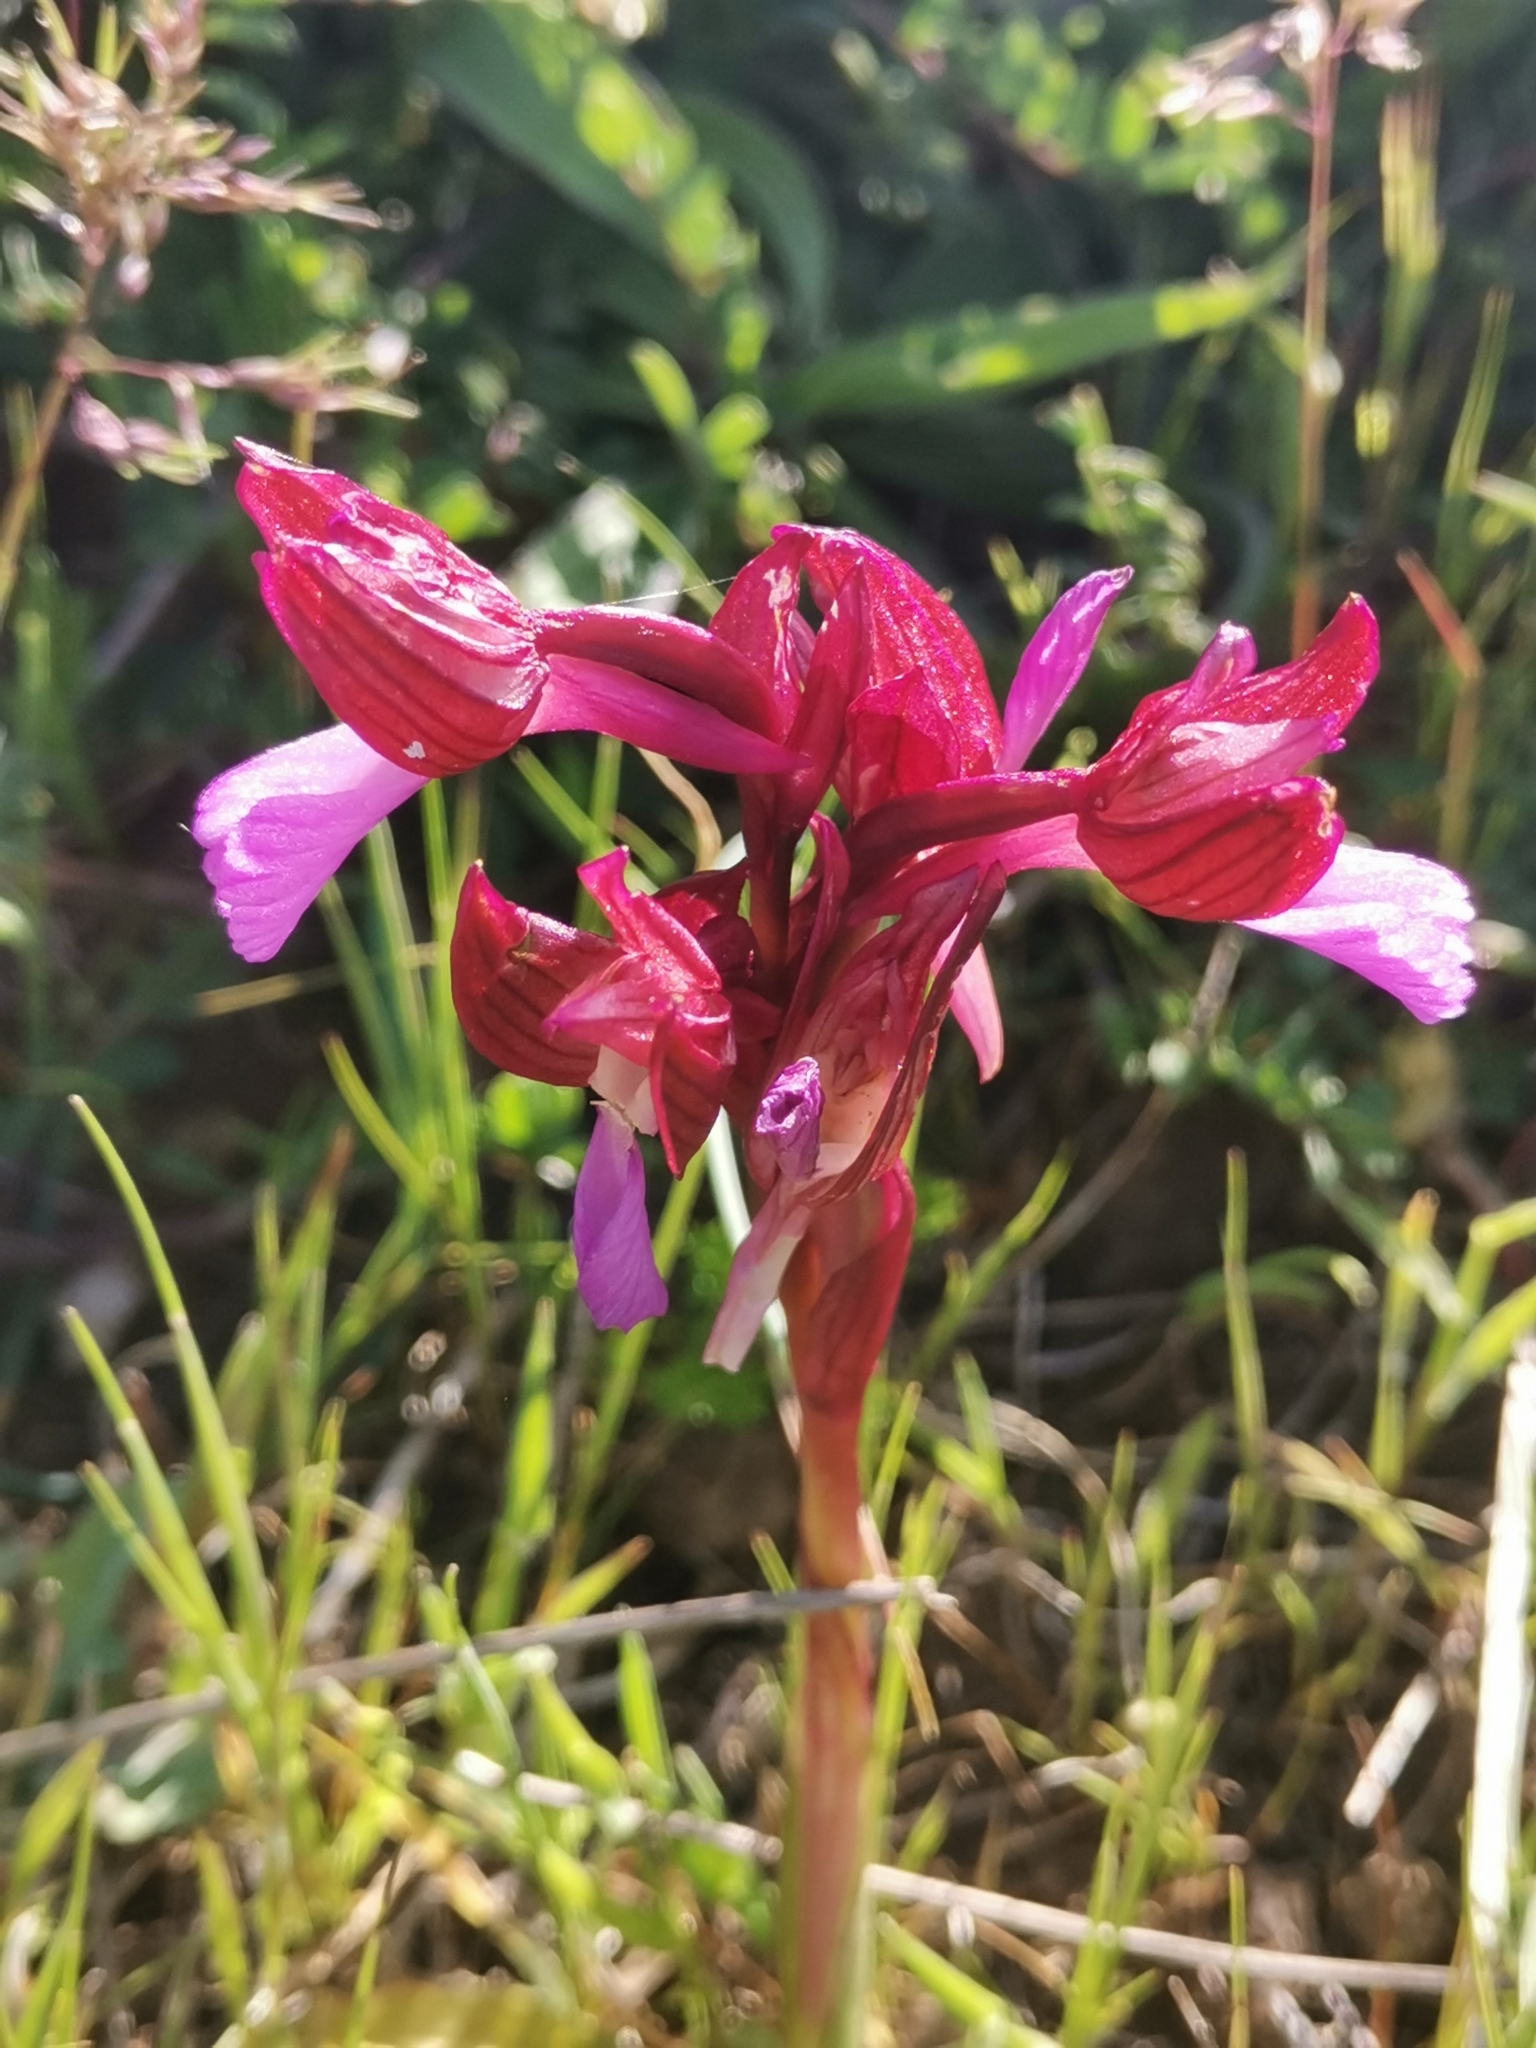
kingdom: Plantae
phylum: Tracheophyta
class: Liliopsida
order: Asparagales
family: Orchidaceae
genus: Anacamptis
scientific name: Anacamptis papilionacea
